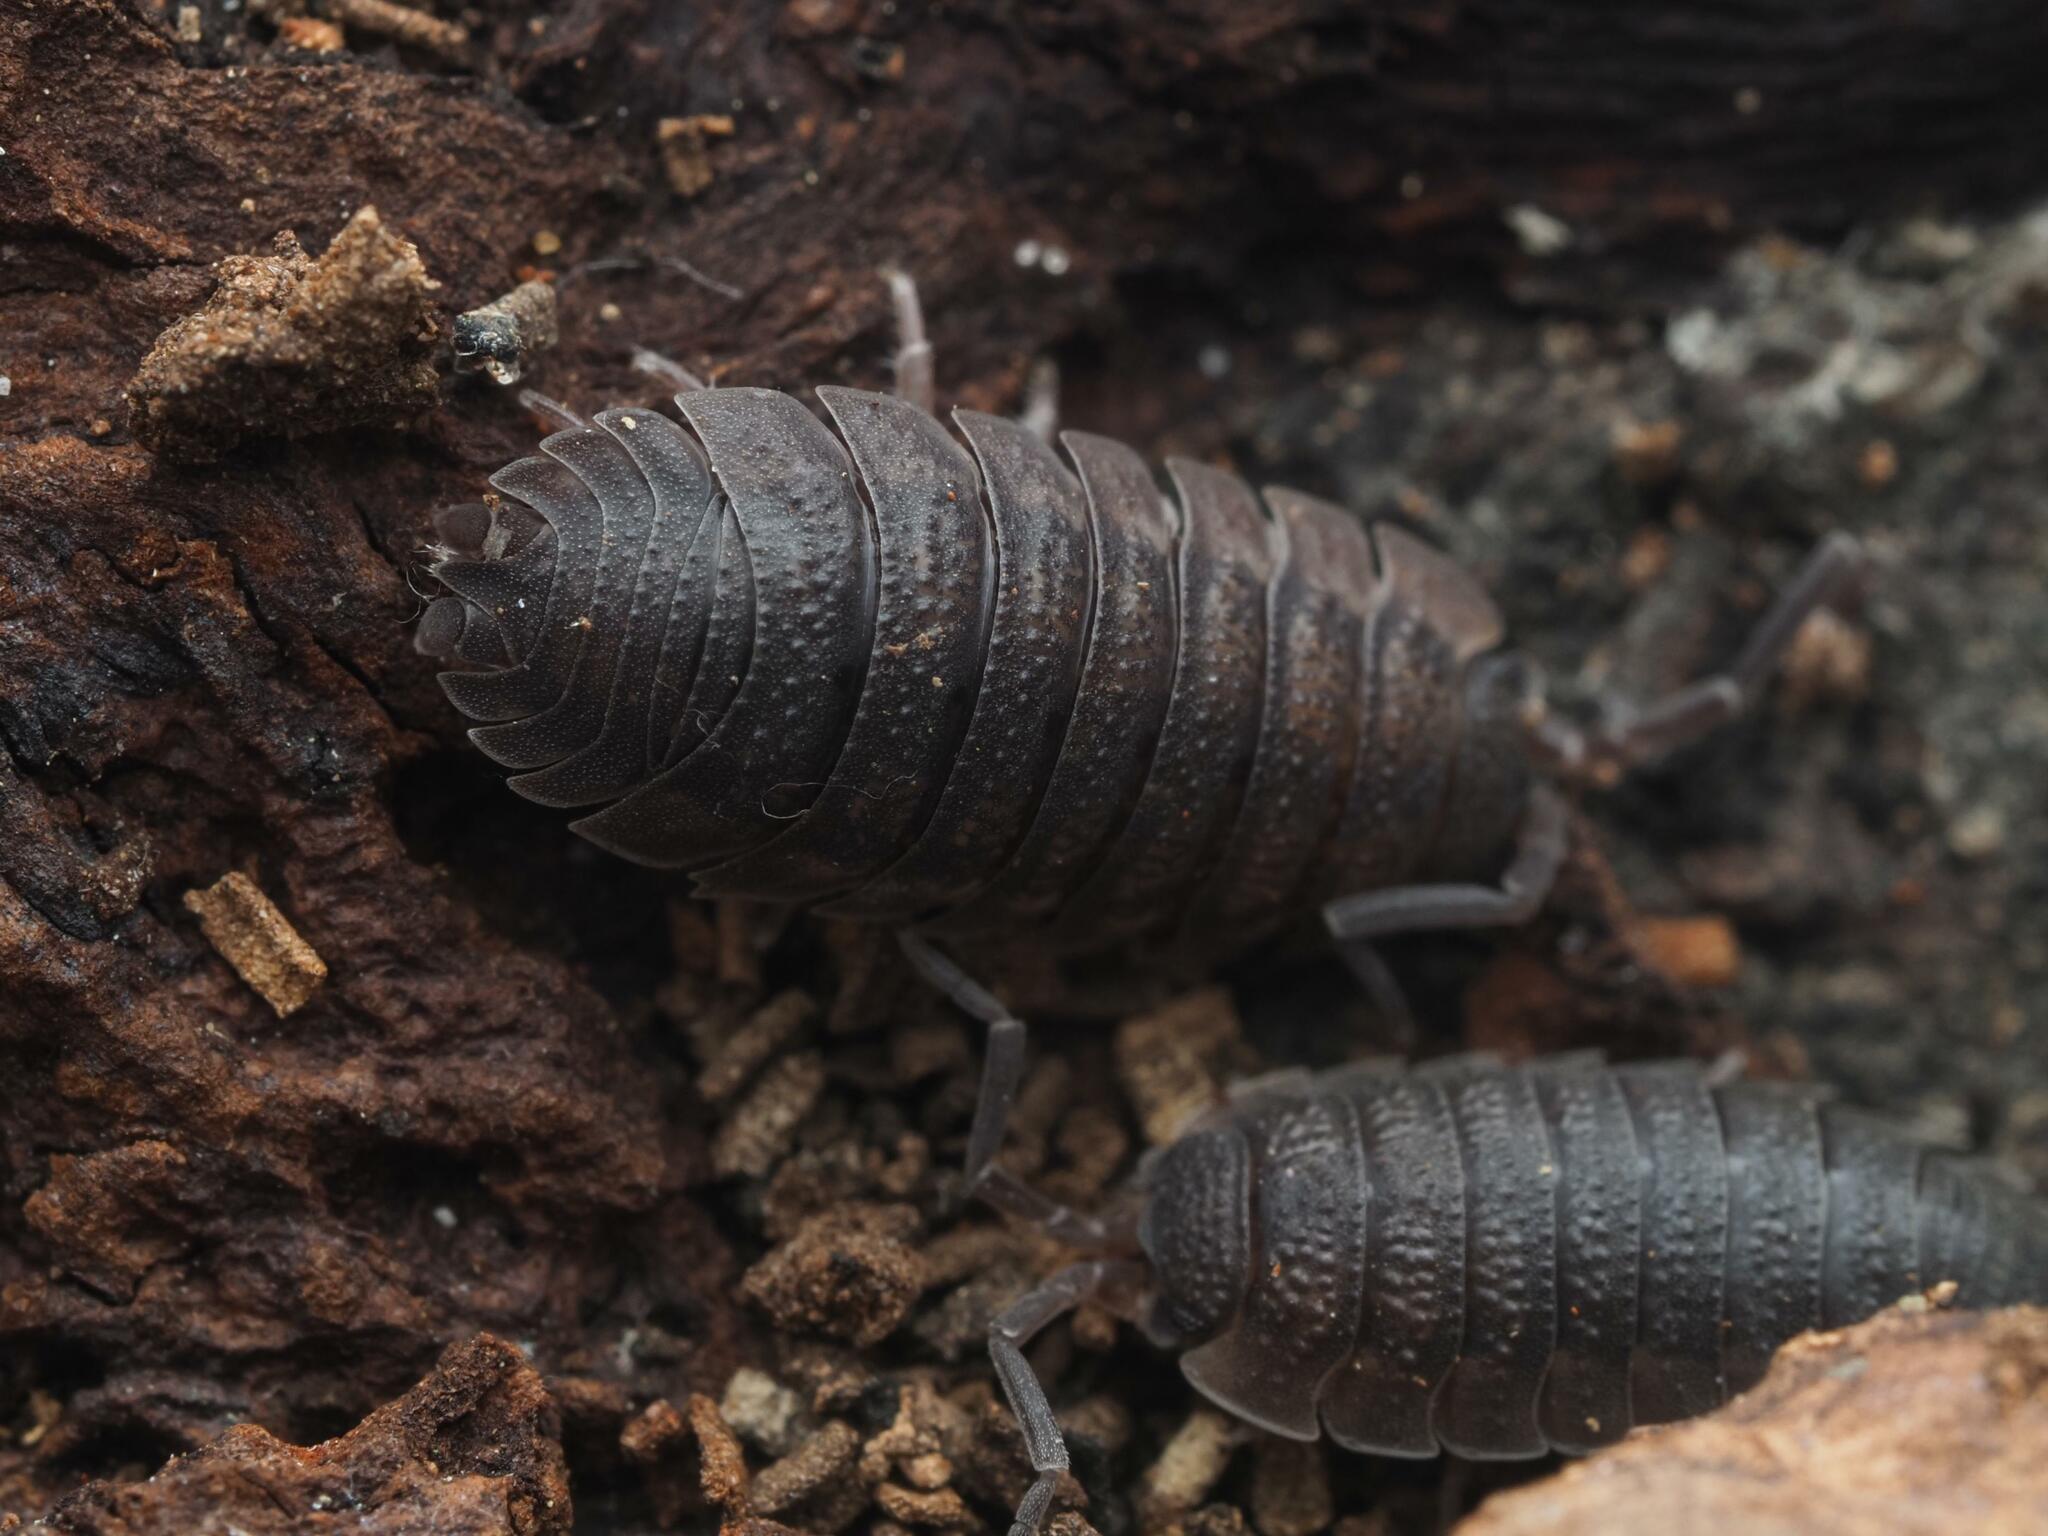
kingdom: Animalia
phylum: Arthropoda
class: Malacostraca
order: Isopoda
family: Porcellionidae
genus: Porcellio
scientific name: Porcellio scaber
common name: Common rough woodlouse
